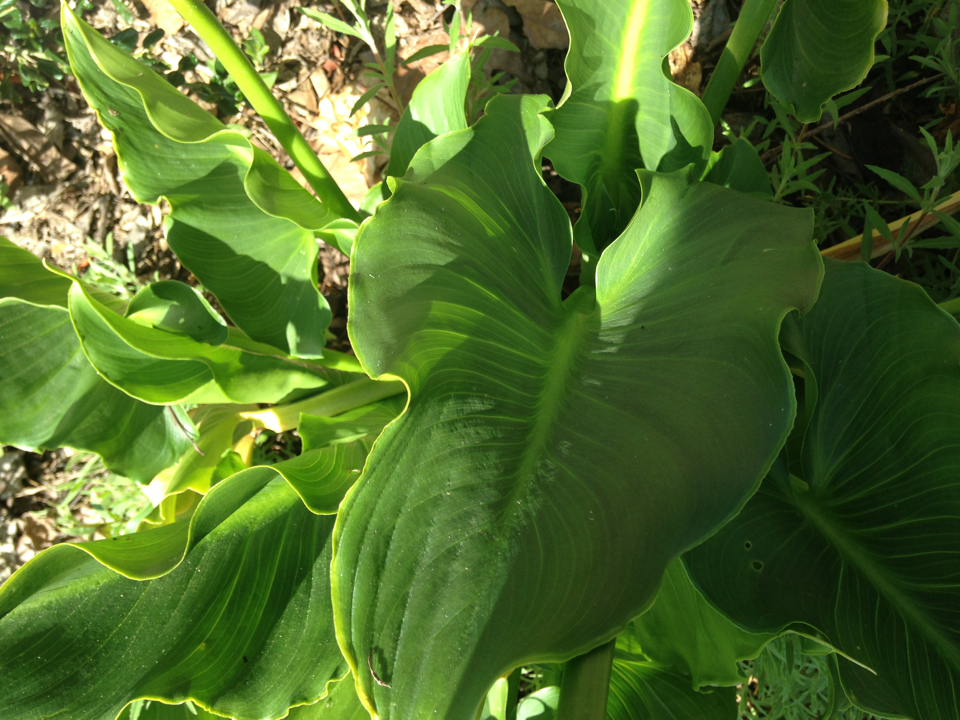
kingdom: Plantae
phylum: Tracheophyta
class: Liliopsida
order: Alismatales
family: Araceae
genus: Zantedeschia
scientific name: Zantedeschia aethiopica
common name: Altar-lily
